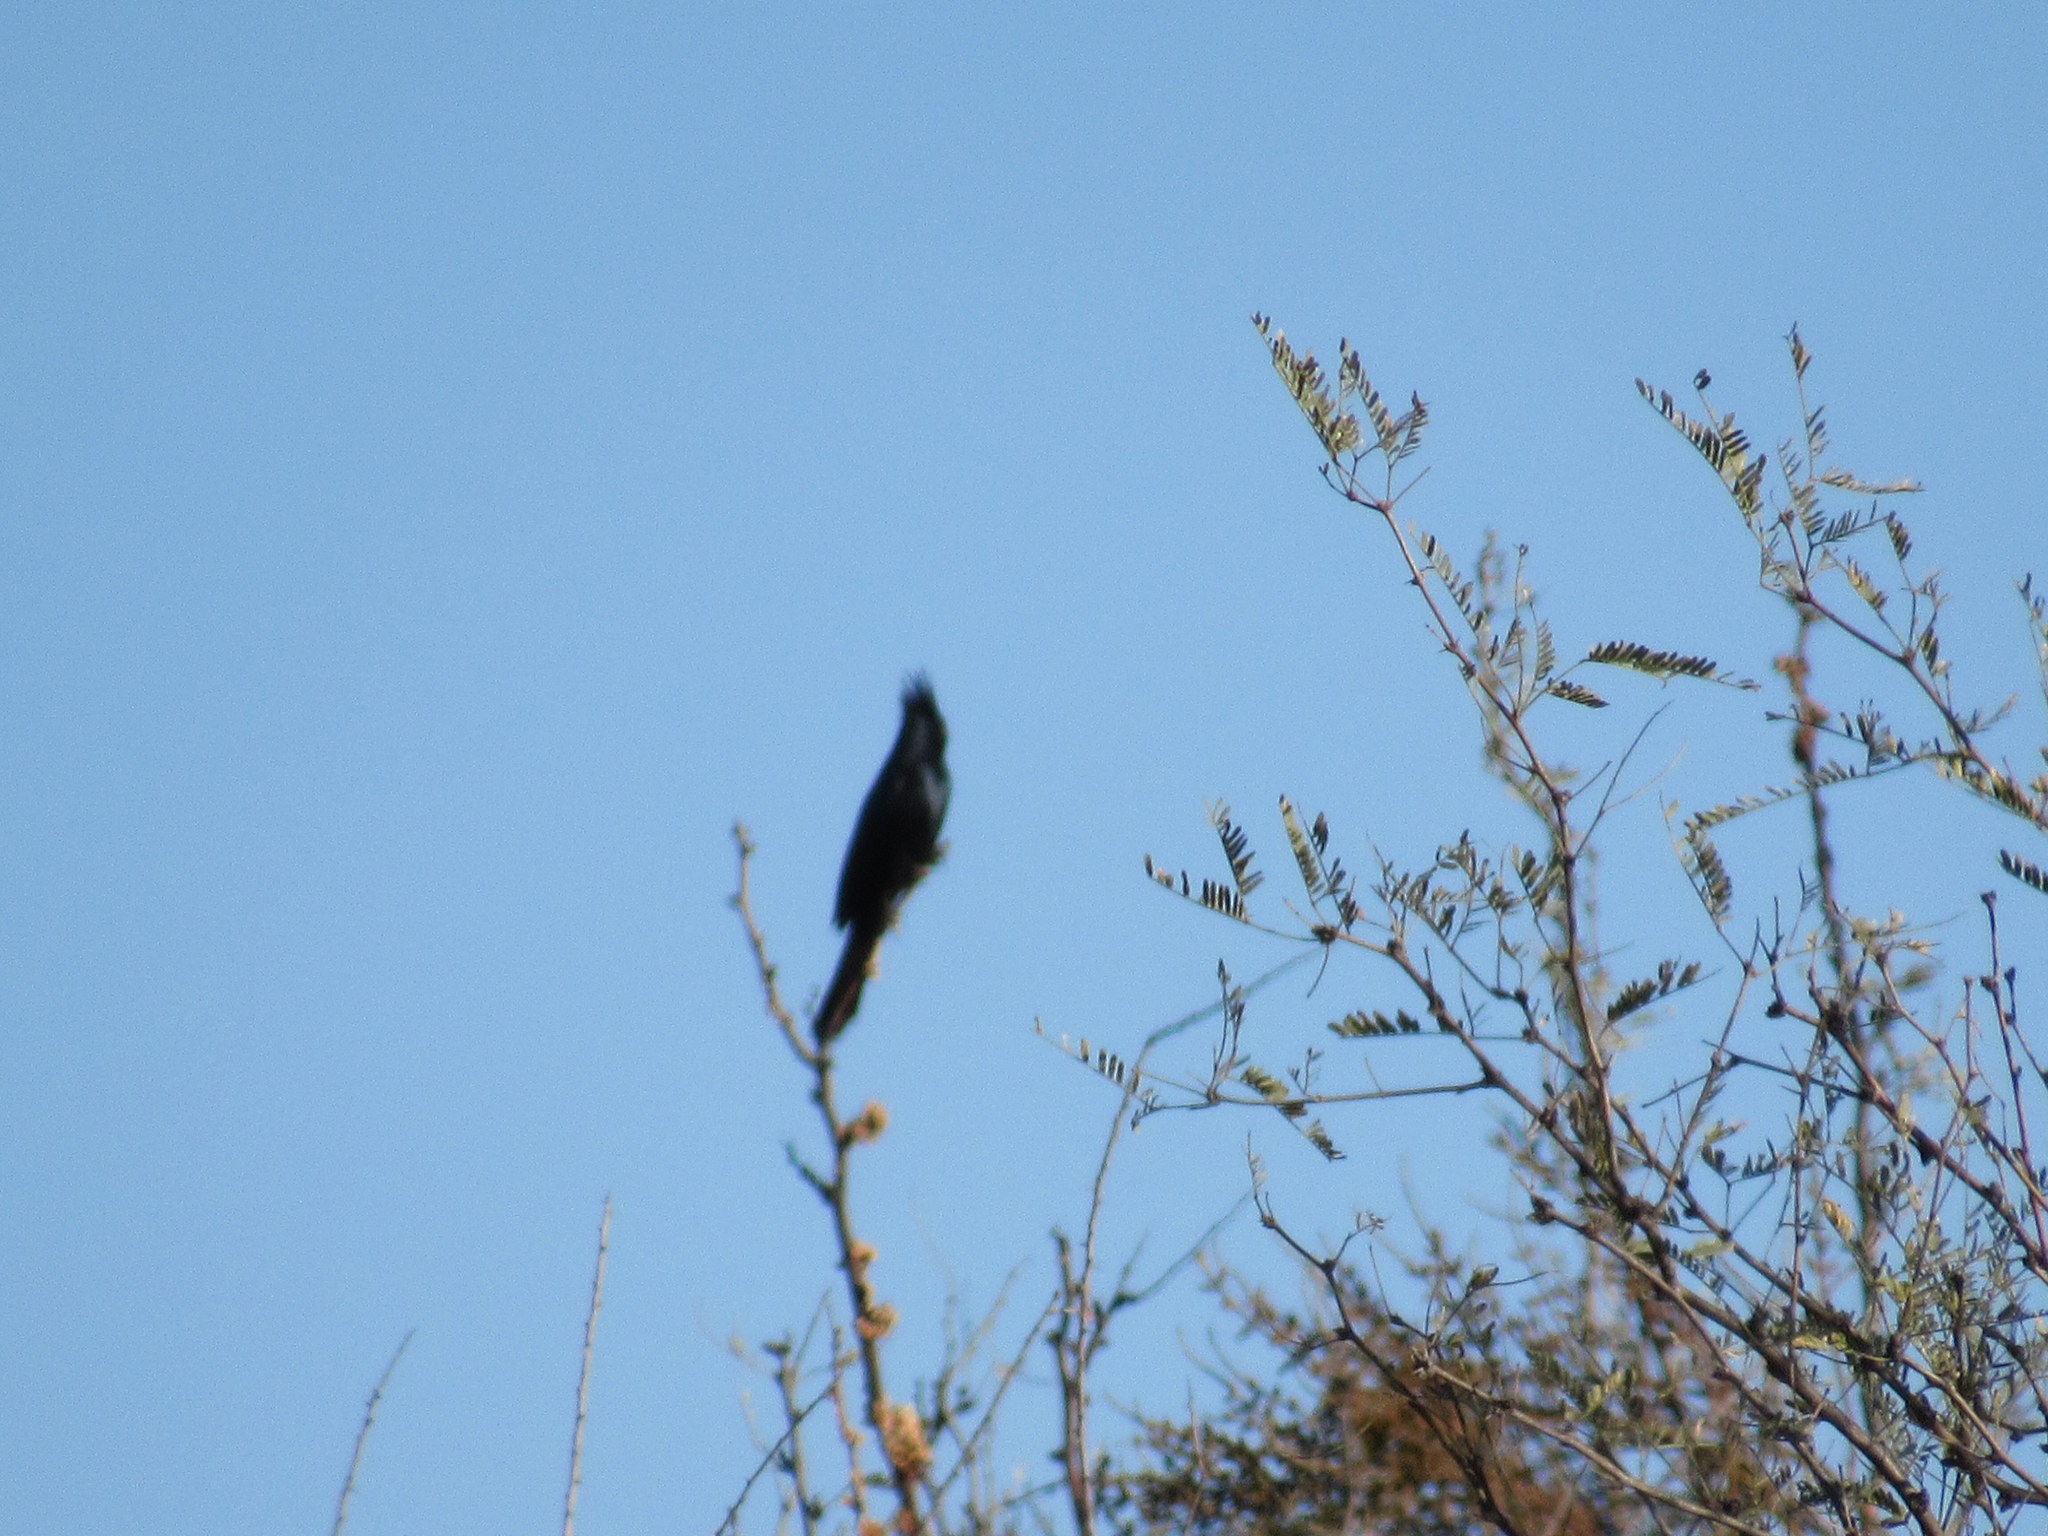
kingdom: Animalia
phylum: Chordata
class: Aves
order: Passeriformes
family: Ptilogonatidae
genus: Phainopepla
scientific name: Phainopepla nitens
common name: Phainopepla
